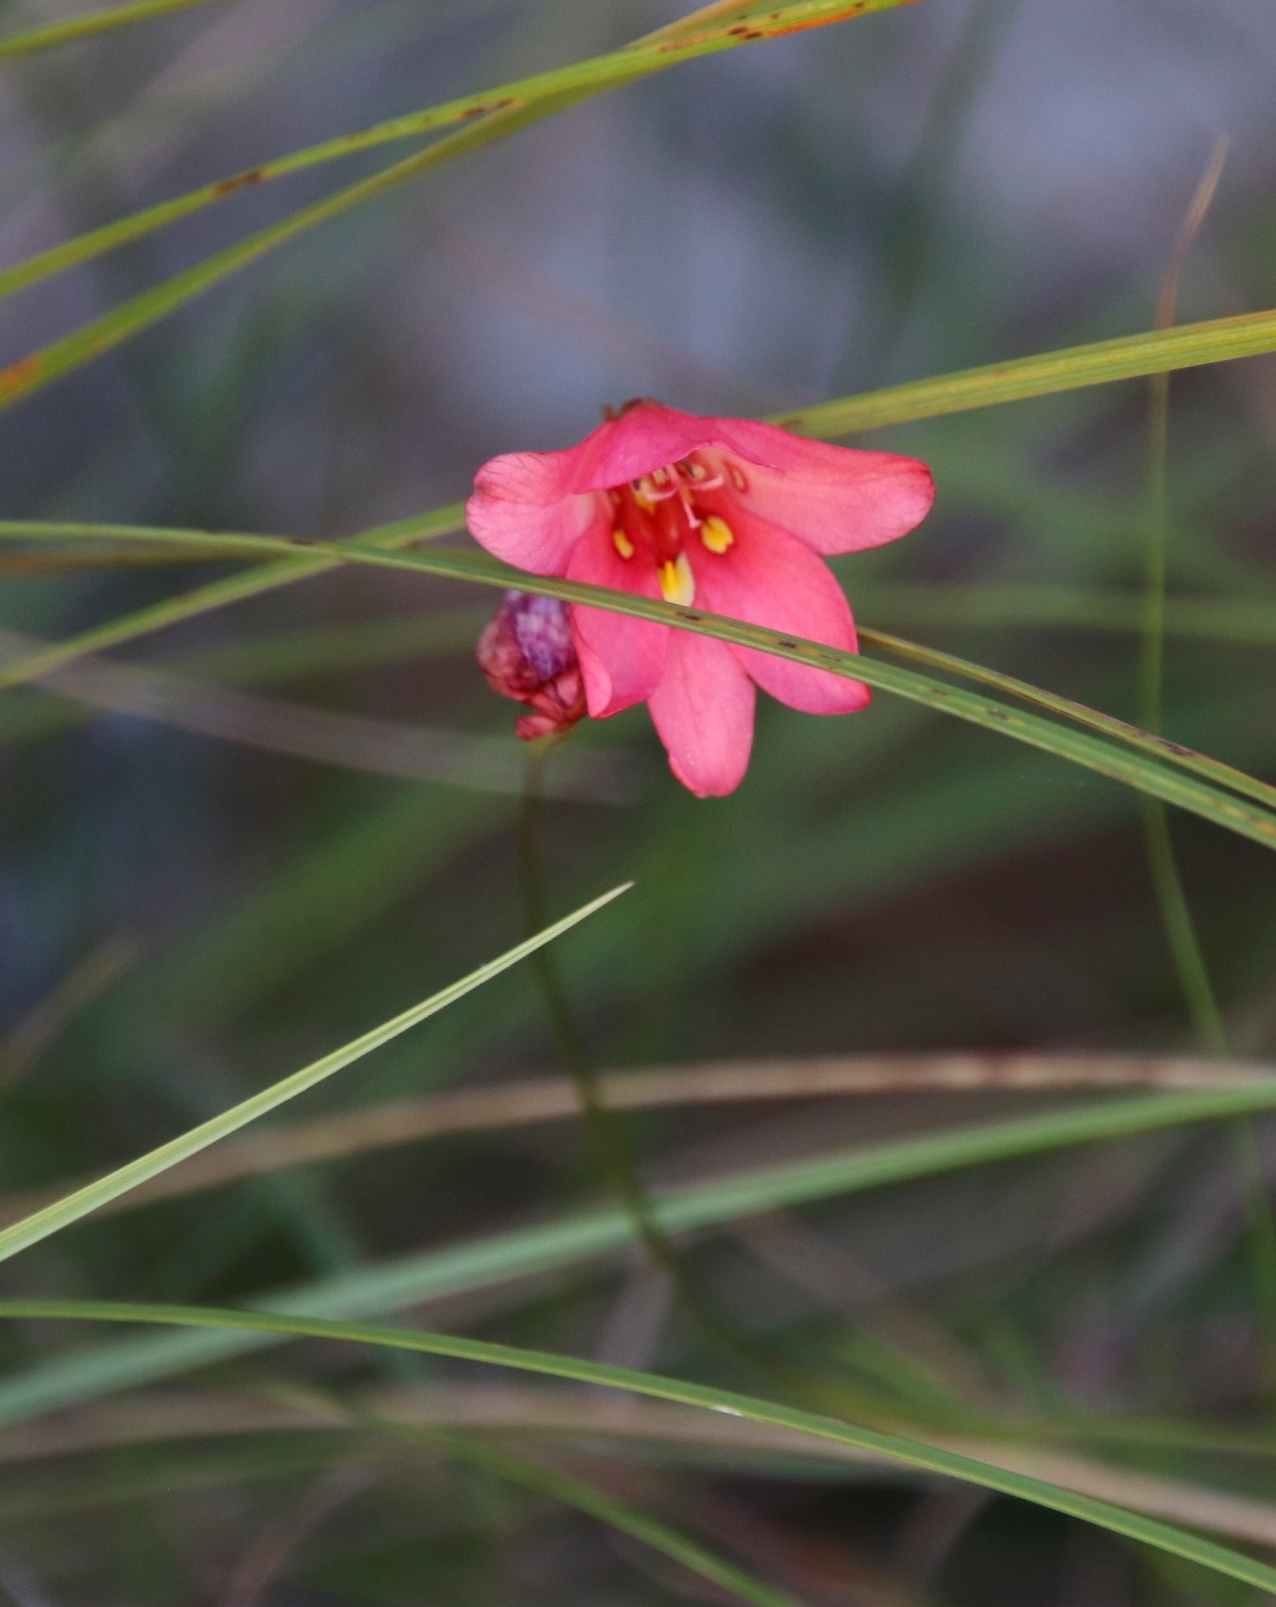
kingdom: Plantae
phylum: Tracheophyta
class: Liliopsida
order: Asparagales
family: Iridaceae
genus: Tritonia
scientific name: Tritonia drakensbergensis
